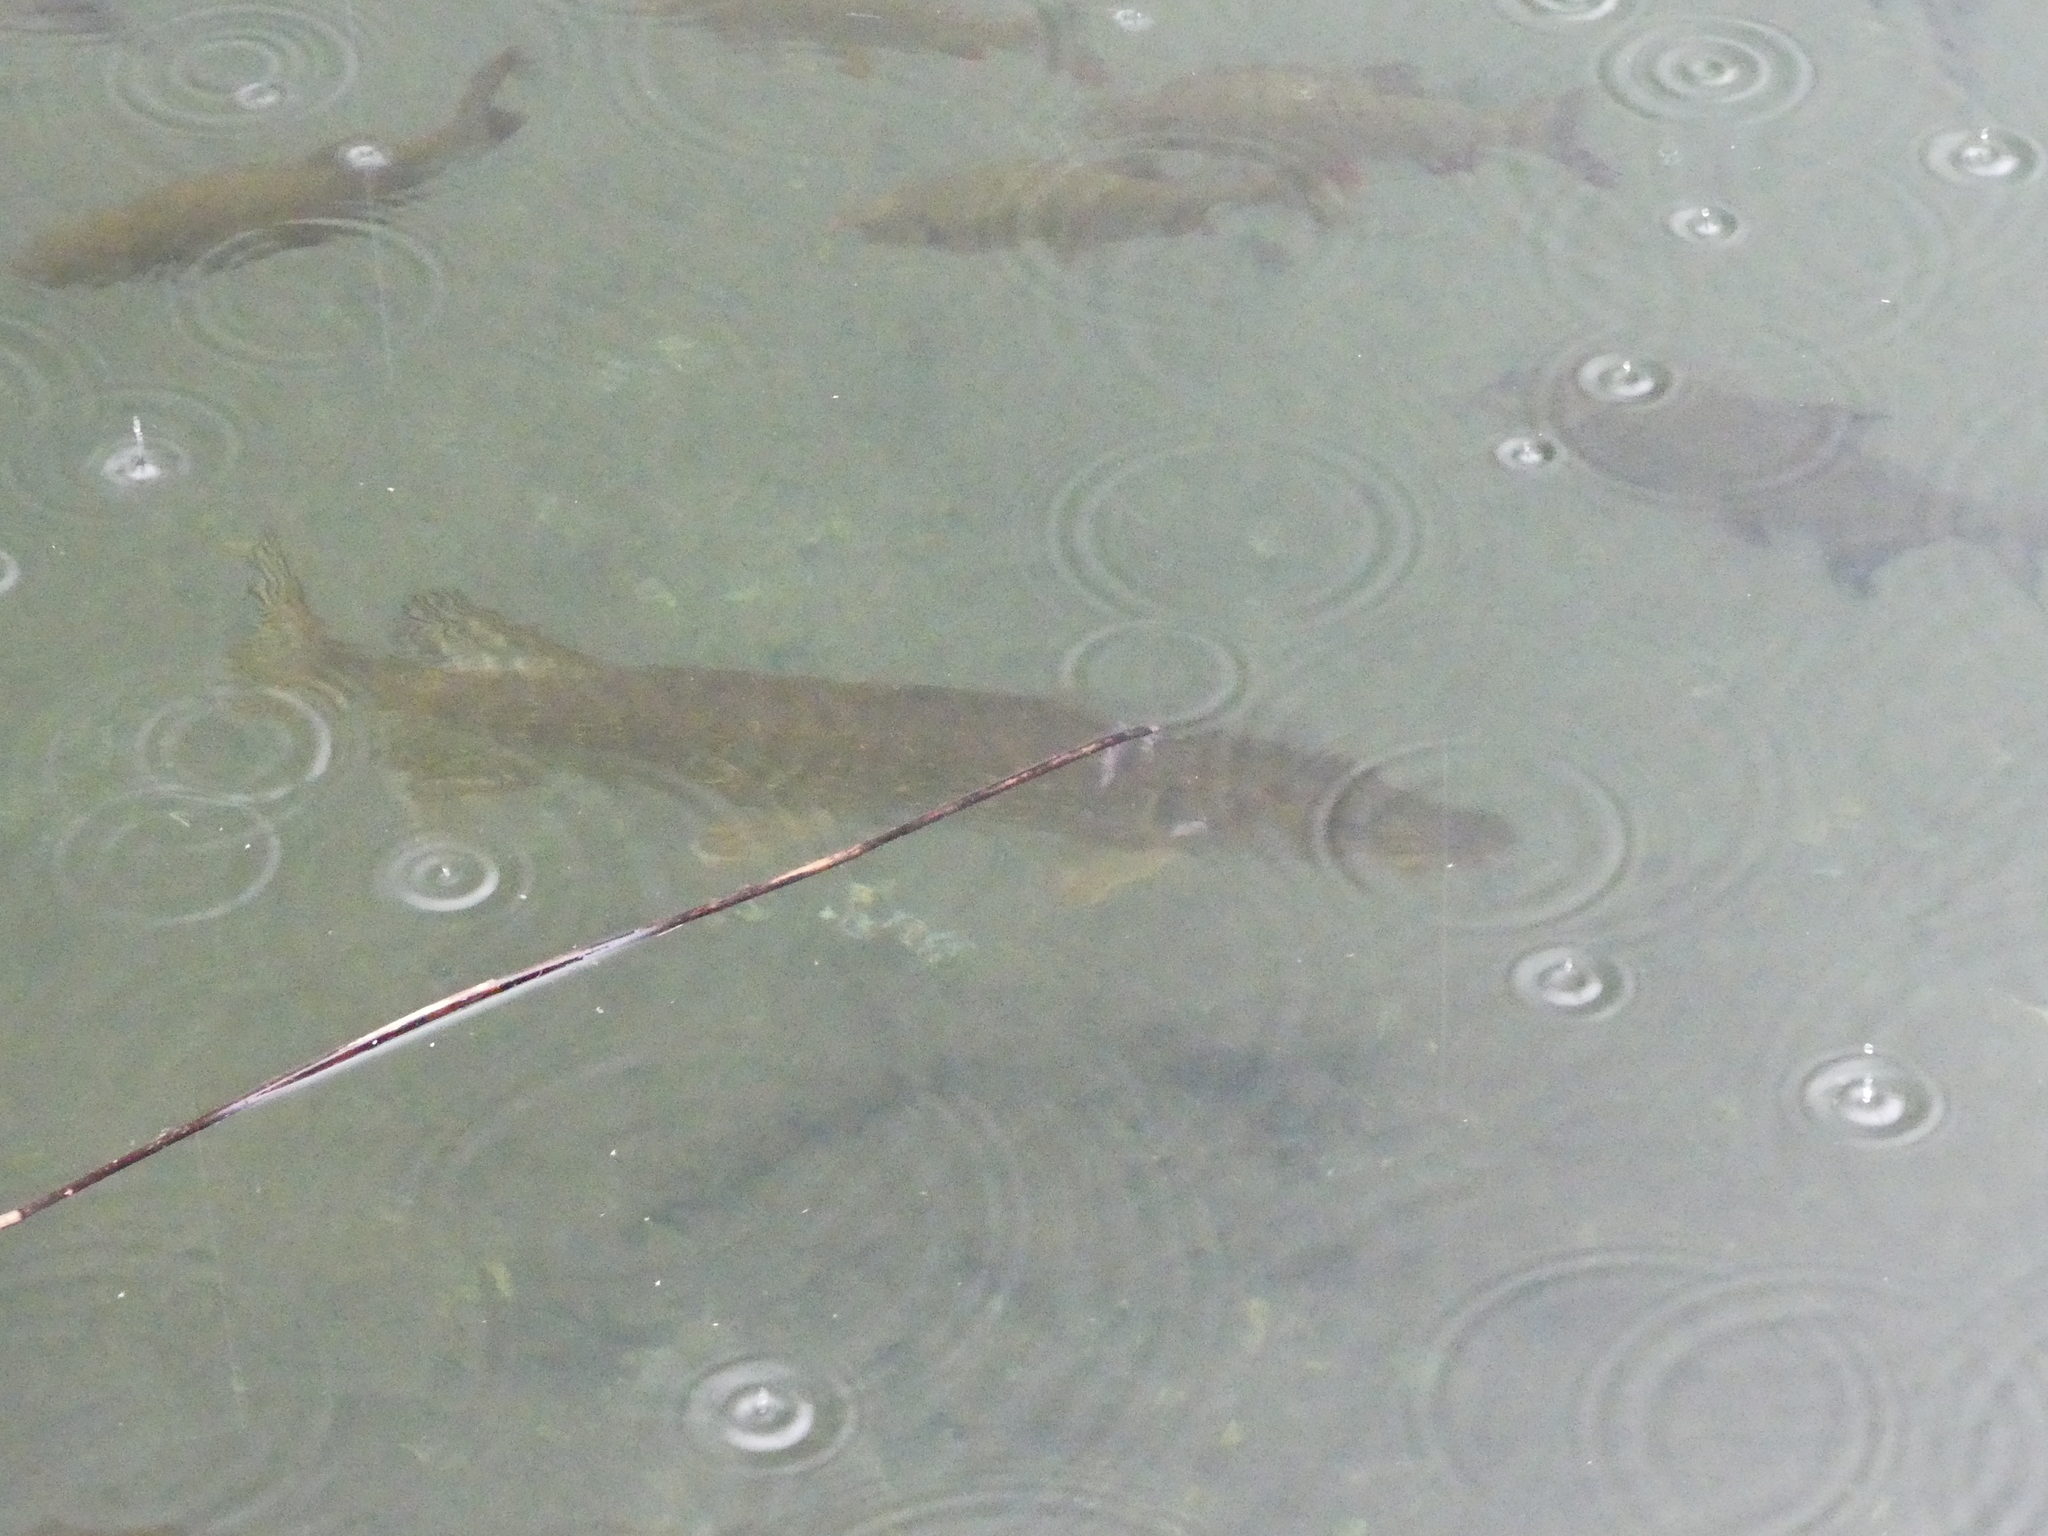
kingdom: Animalia
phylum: Chordata
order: Esociformes
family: Esocidae
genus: Esox
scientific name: Esox lucius
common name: Northern pike
